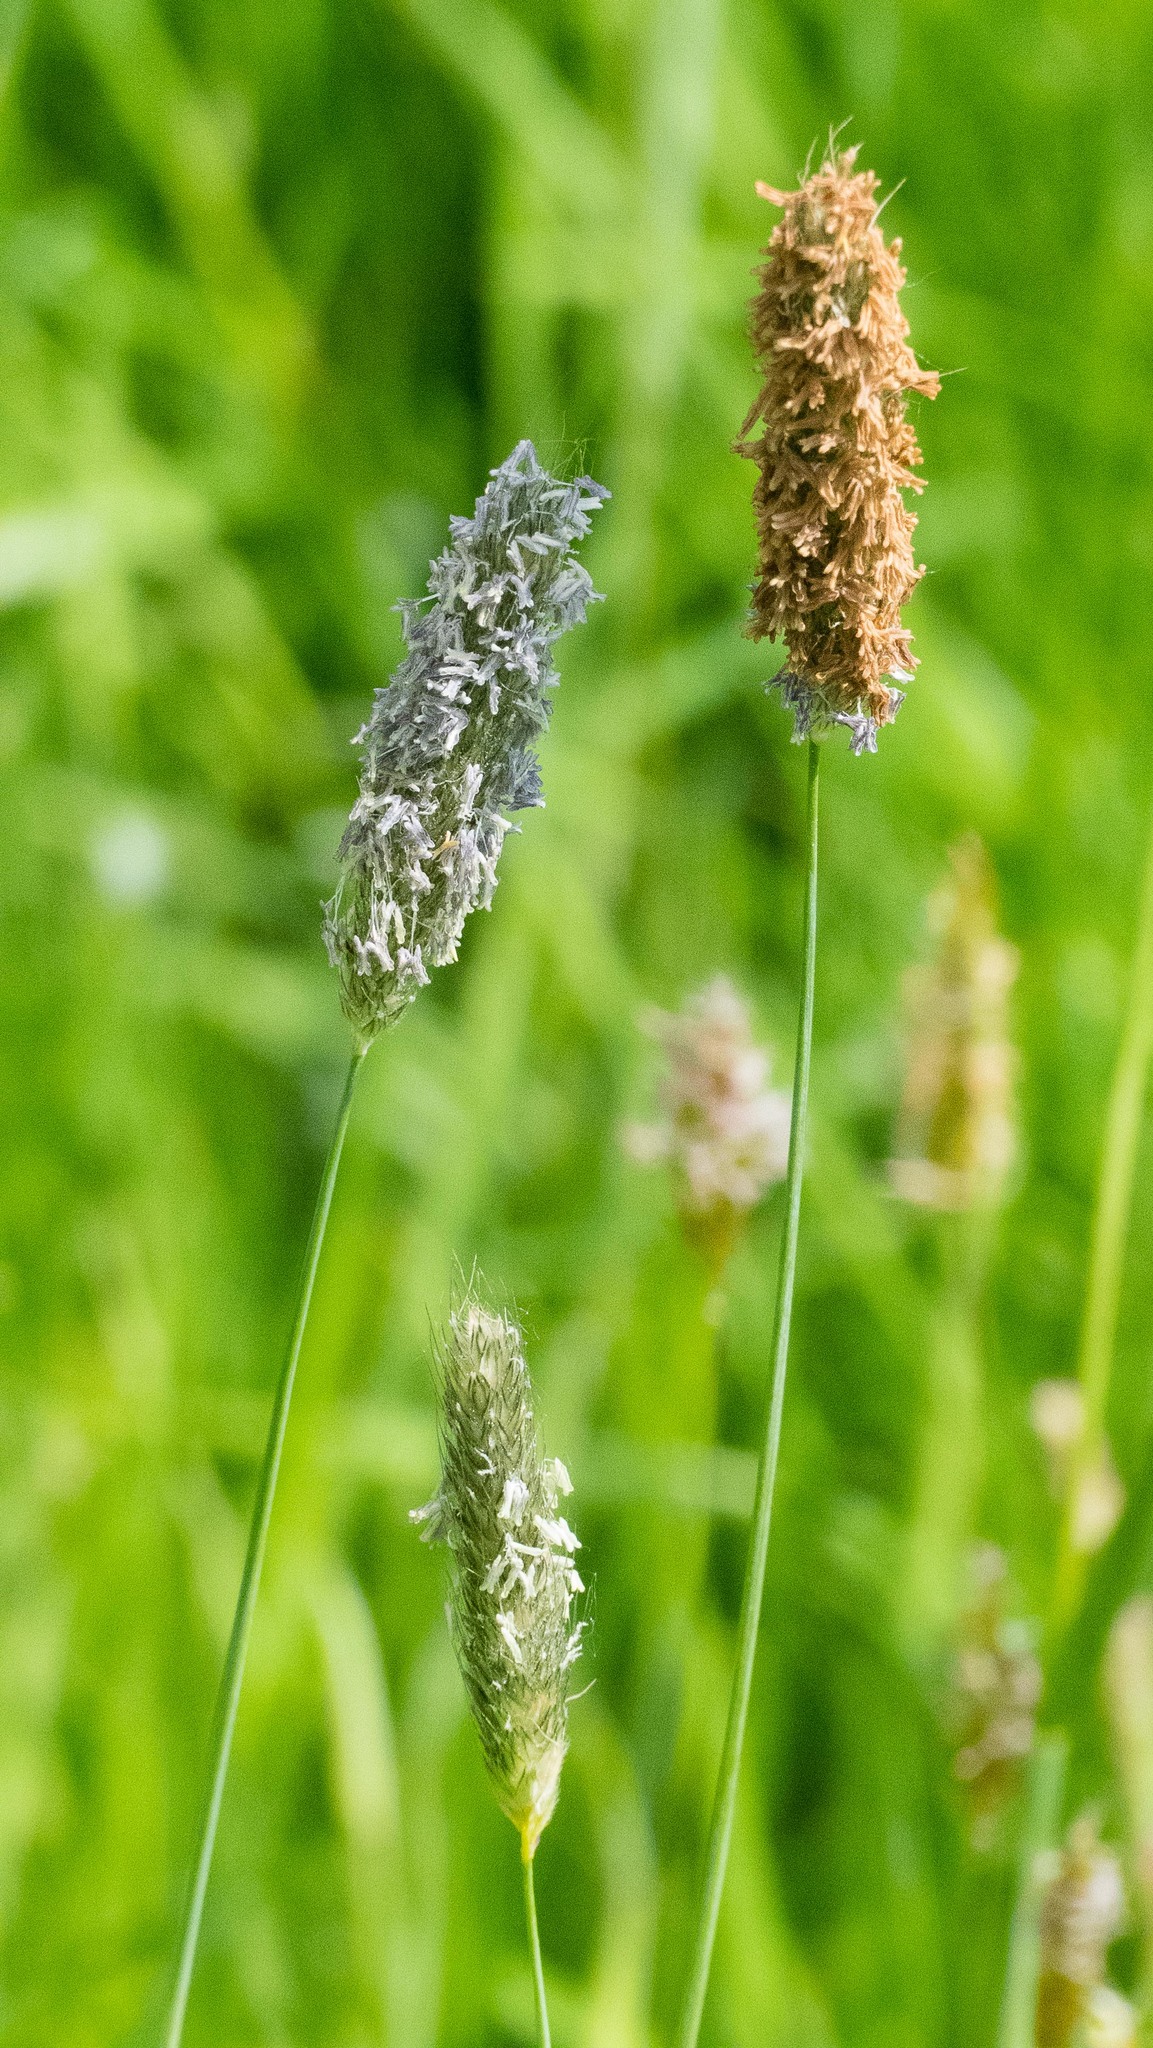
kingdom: Plantae
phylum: Tracheophyta
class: Liliopsida
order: Poales
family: Poaceae
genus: Alopecurus
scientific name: Alopecurus pratensis
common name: Meadow foxtail
